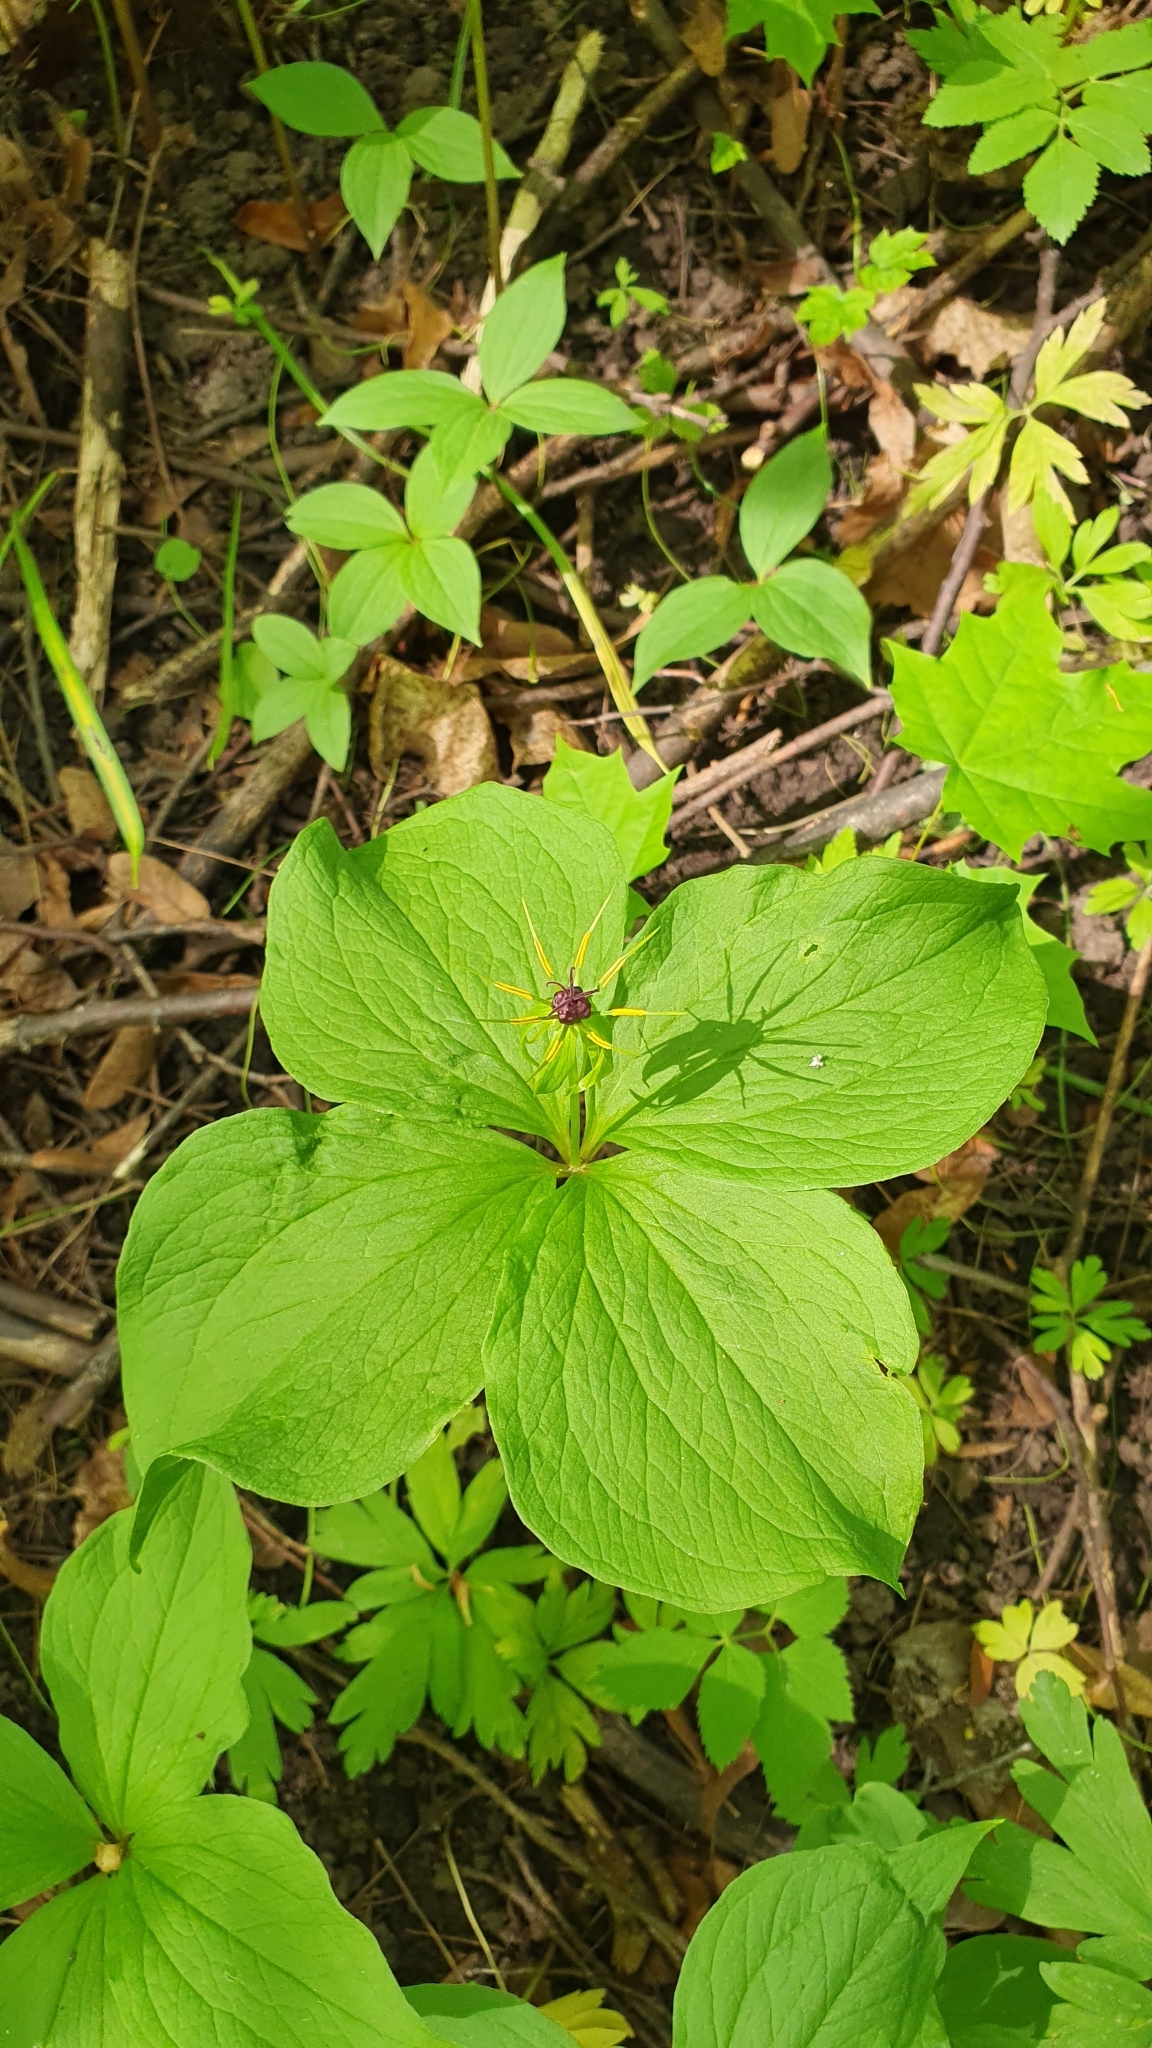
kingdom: Plantae
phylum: Tracheophyta
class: Liliopsida
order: Liliales
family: Melanthiaceae
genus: Paris
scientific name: Paris quadrifolia
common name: Herb-paris
